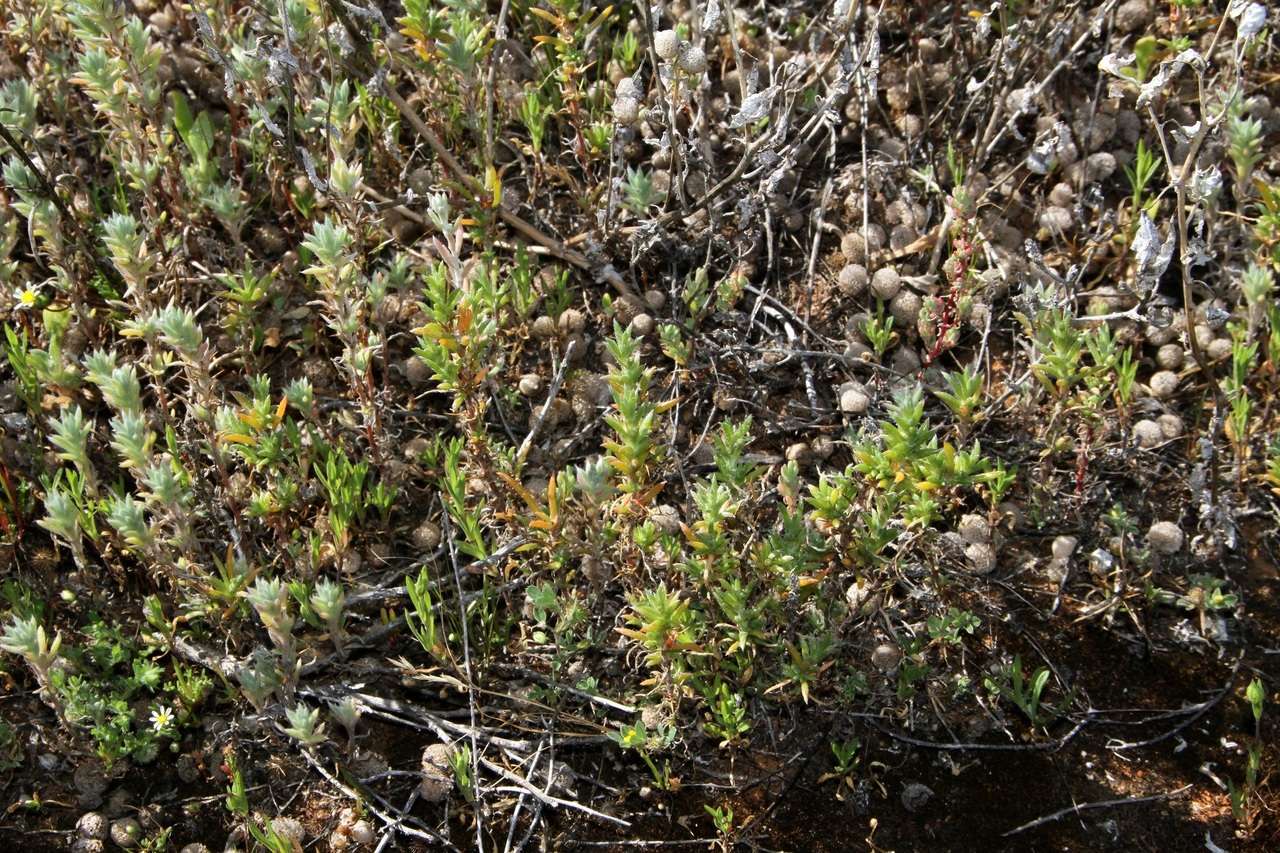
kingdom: Plantae
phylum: Tracheophyta
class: Magnoliopsida
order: Caryophyllales
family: Amaranthaceae
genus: Sclerolaena
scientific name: Sclerolaena decurrens
